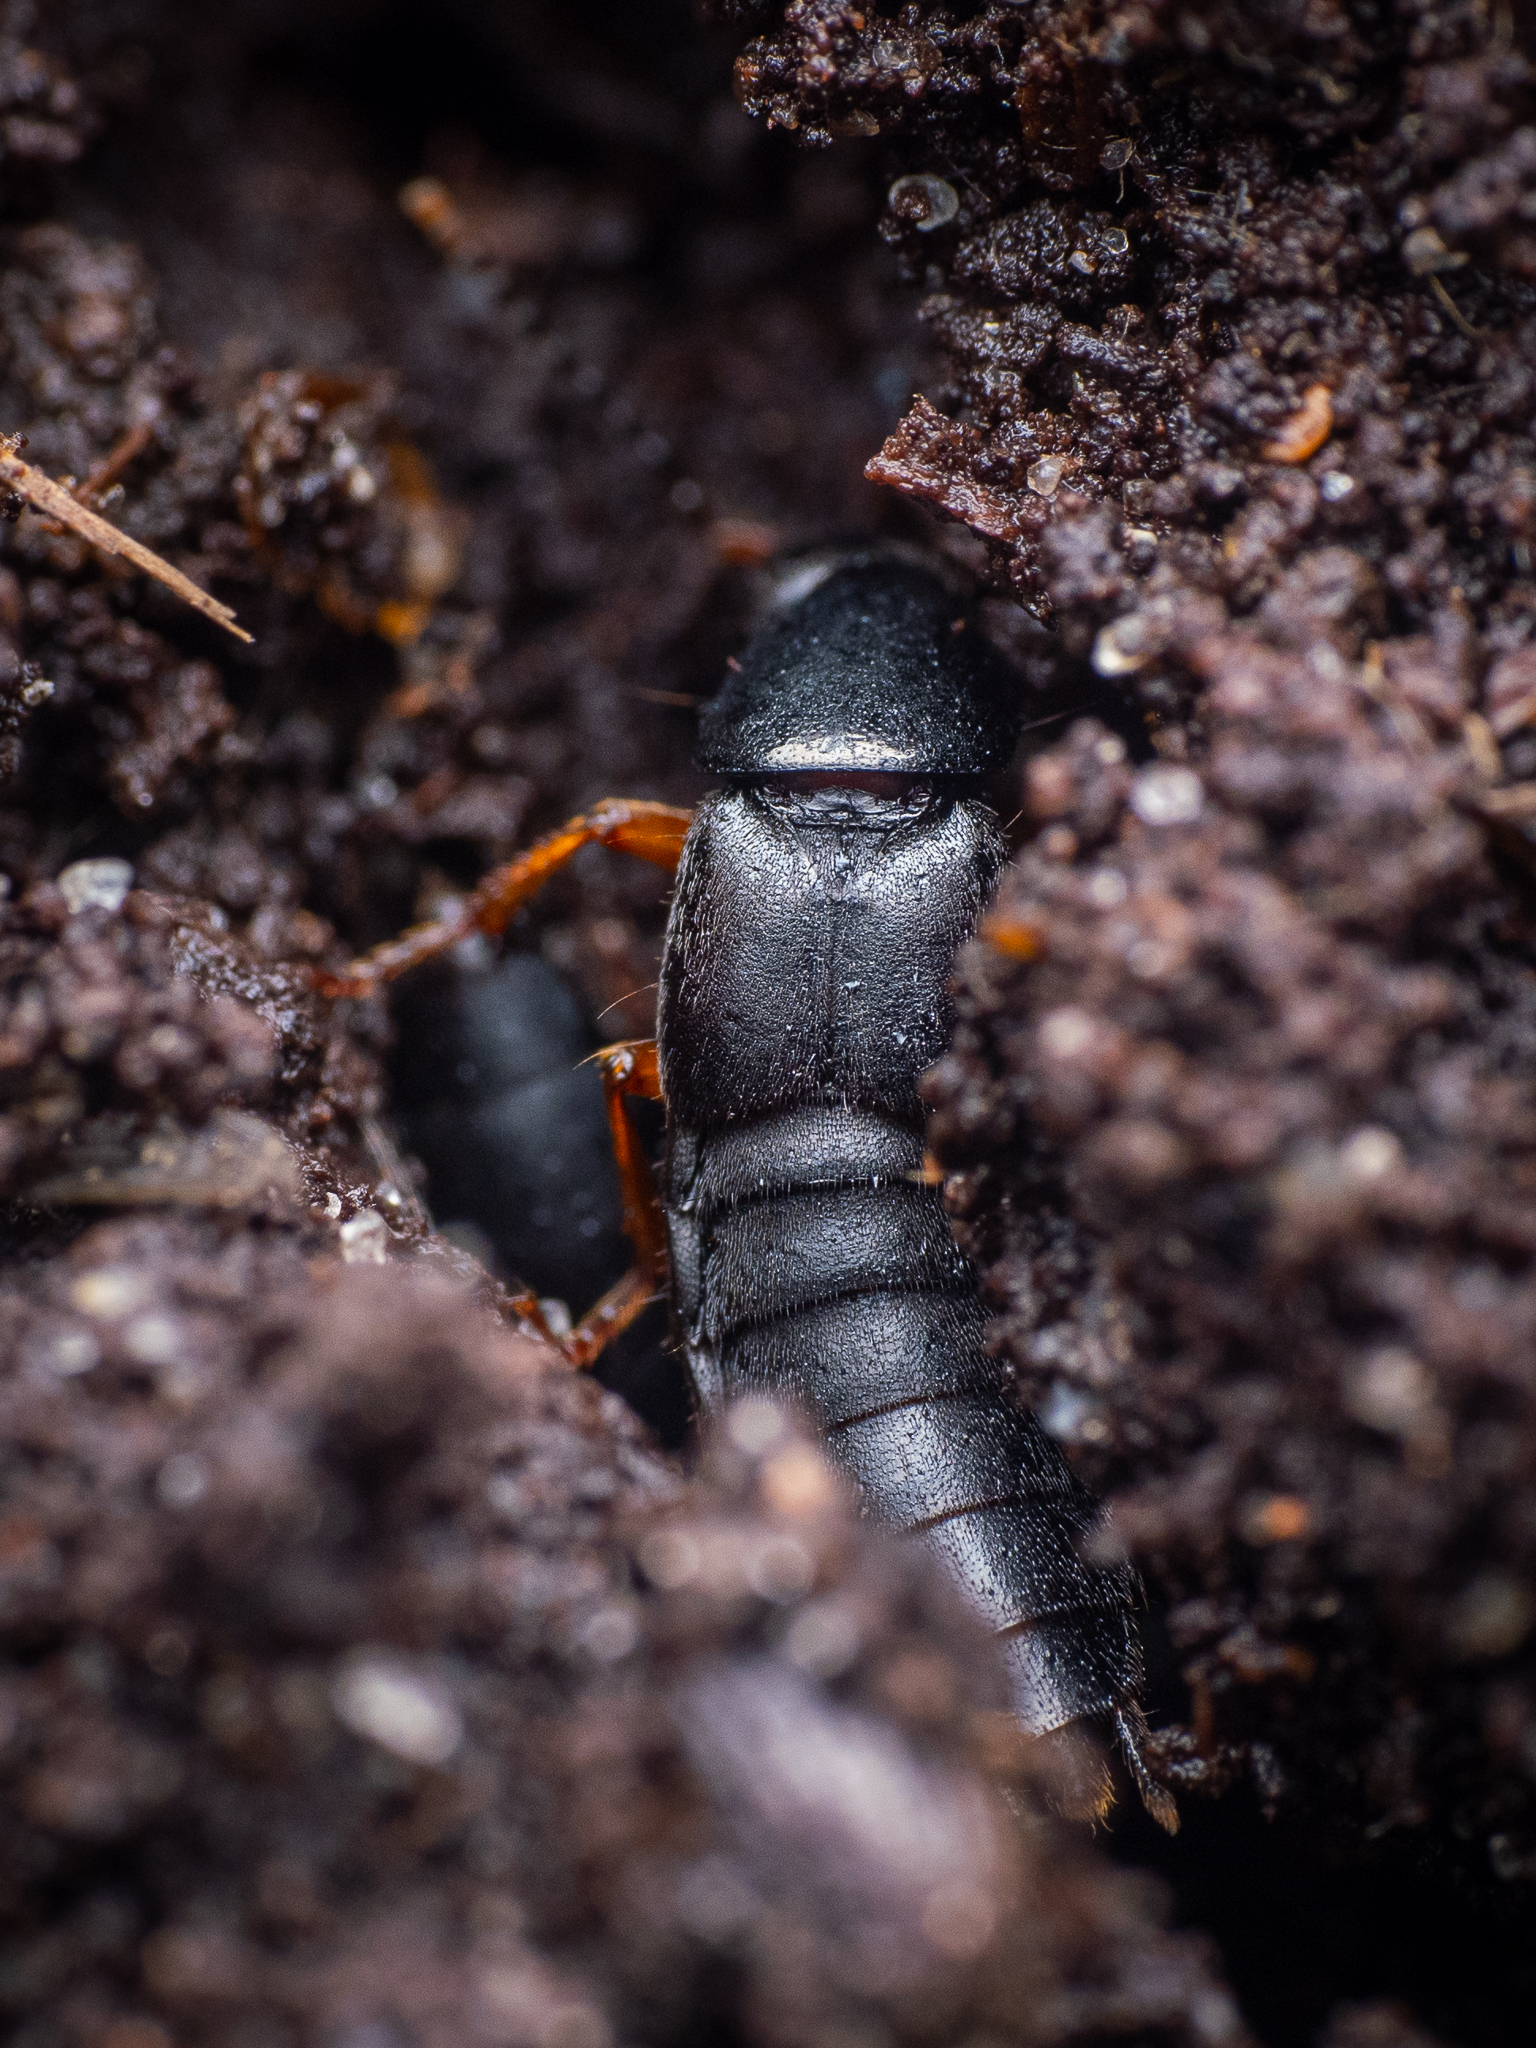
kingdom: Animalia
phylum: Arthropoda
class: Insecta
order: Coleoptera
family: Staphylinidae
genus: Ocypus
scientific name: Ocypus brunnipes
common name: Rove beetle
